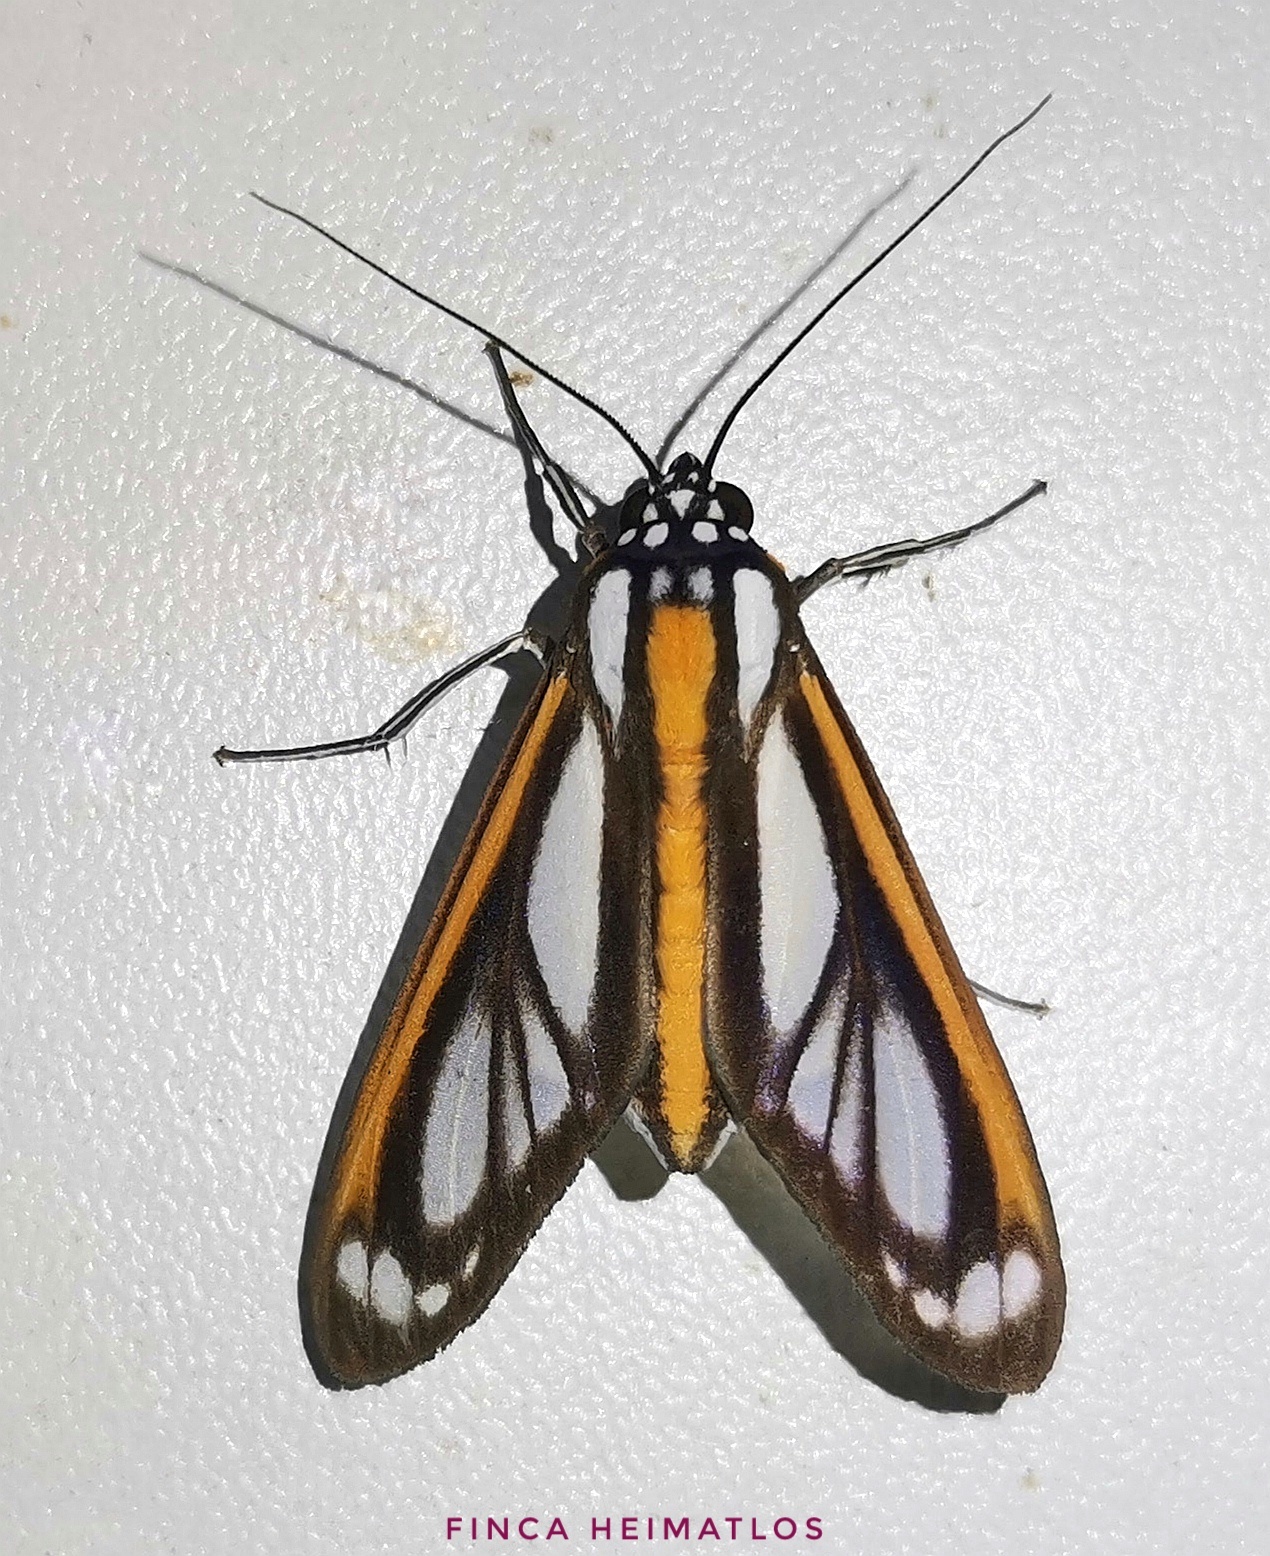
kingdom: Animalia
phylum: Arthropoda
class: Insecta
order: Lepidoptera
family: Erebidae
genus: Robinsonia
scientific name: Robinsonia rockstonia
